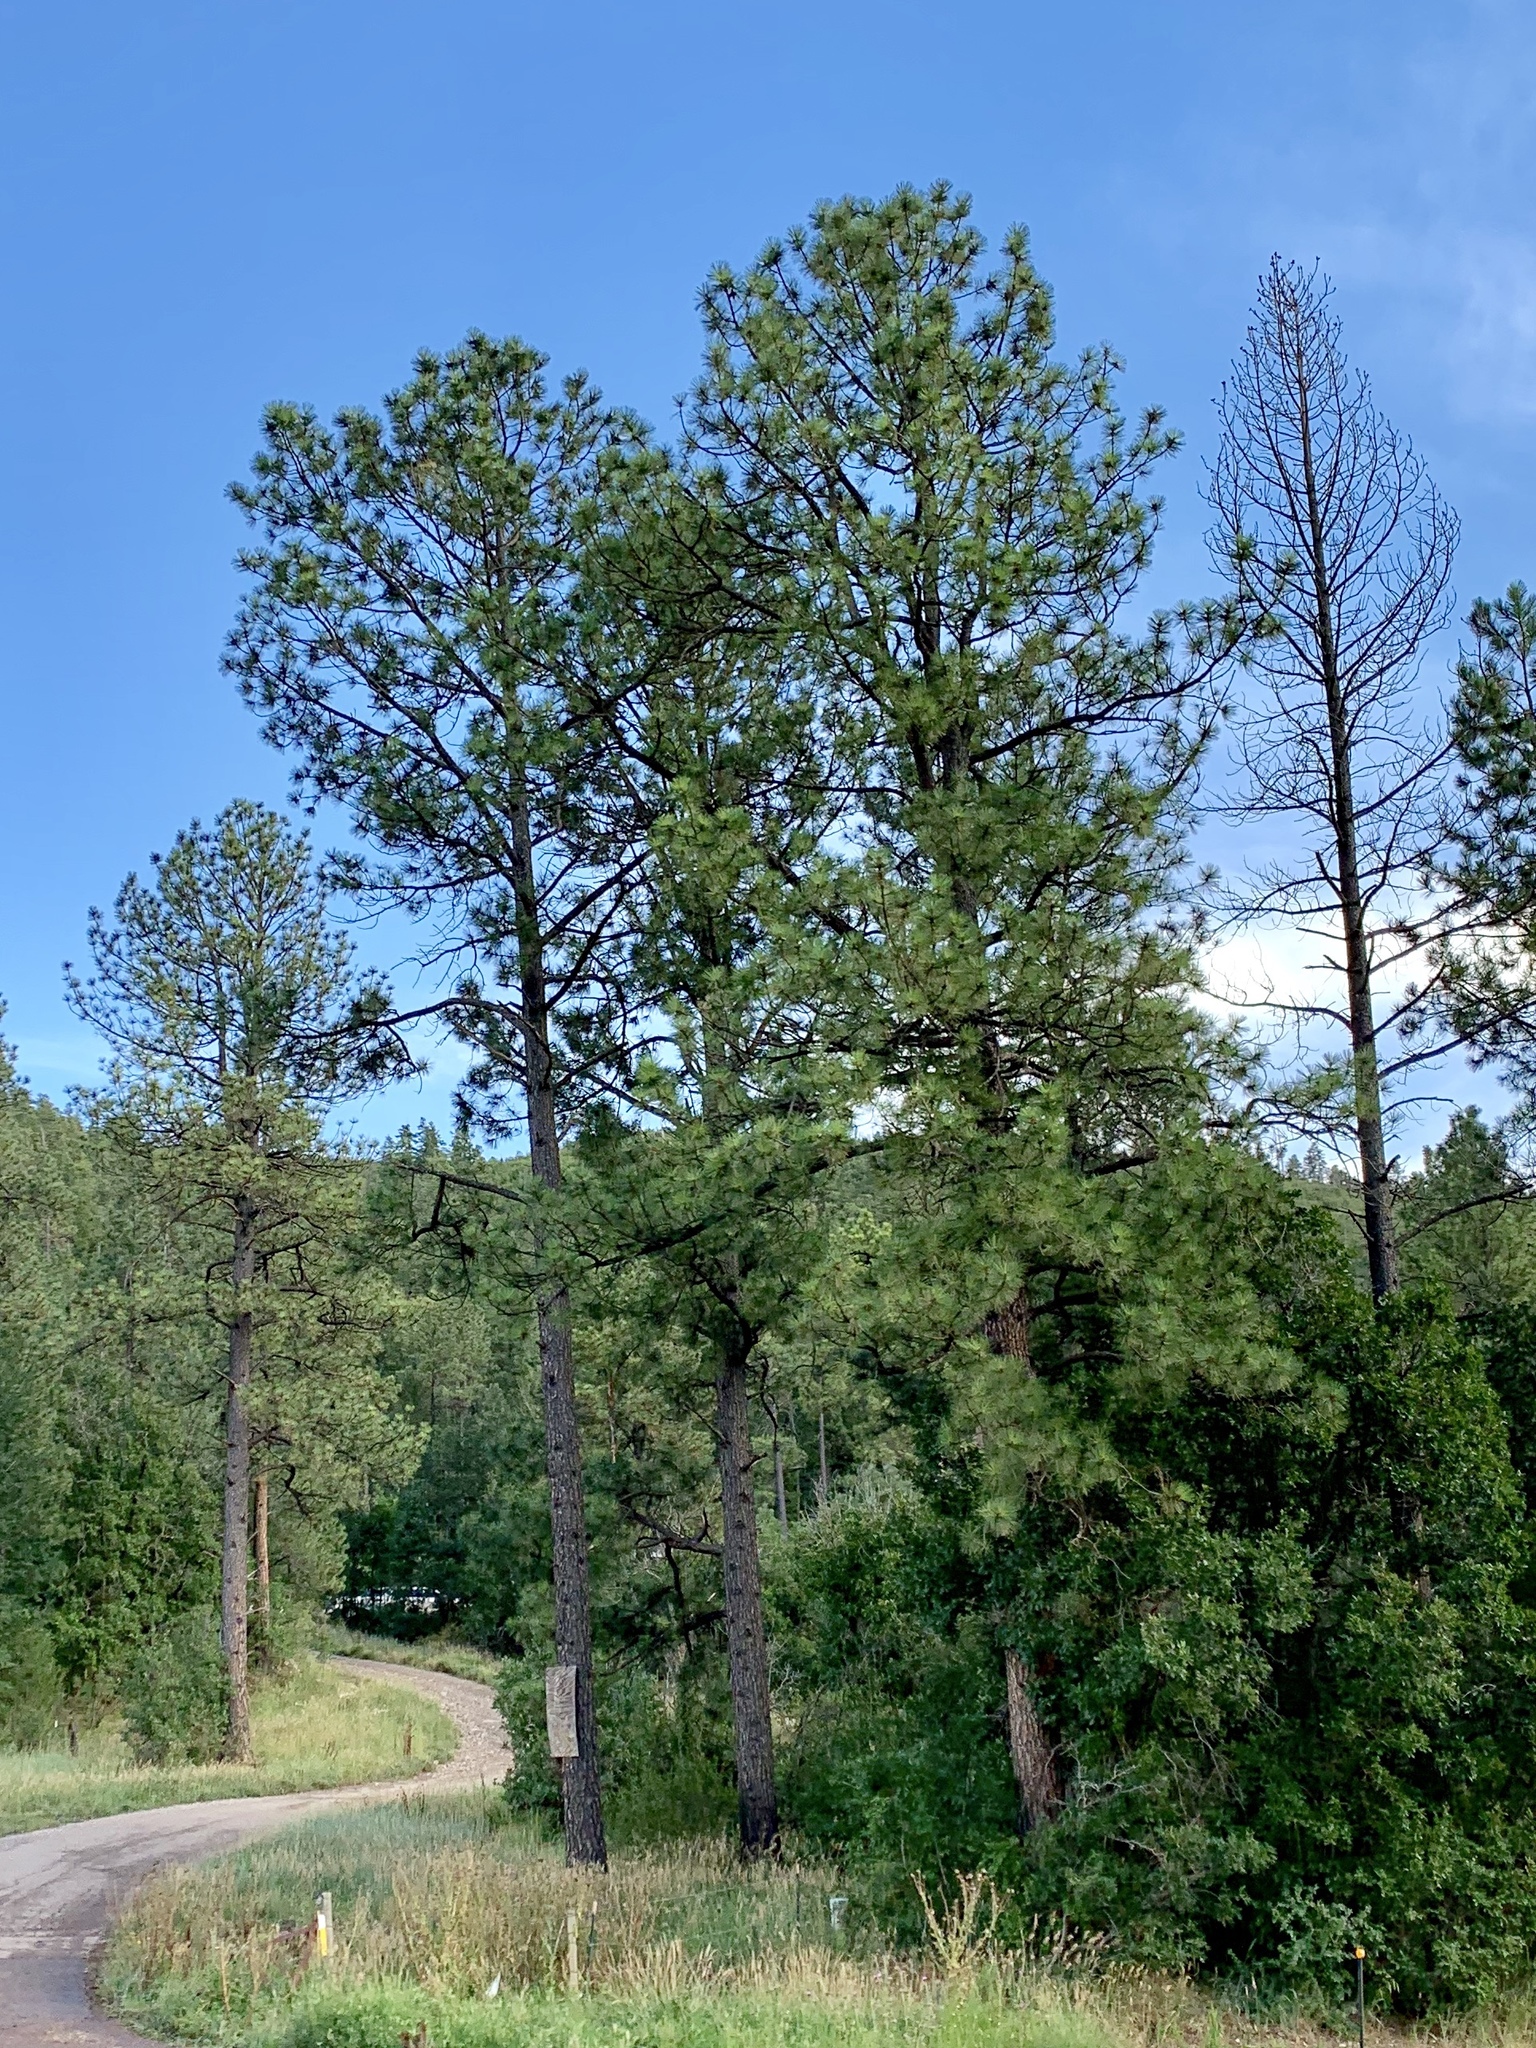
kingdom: Plantae
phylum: Tracheophyta
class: Pinopsida
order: Pinales
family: Pinaceae
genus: Pinus
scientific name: Pinus ponderosa
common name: Western yellow-pine
